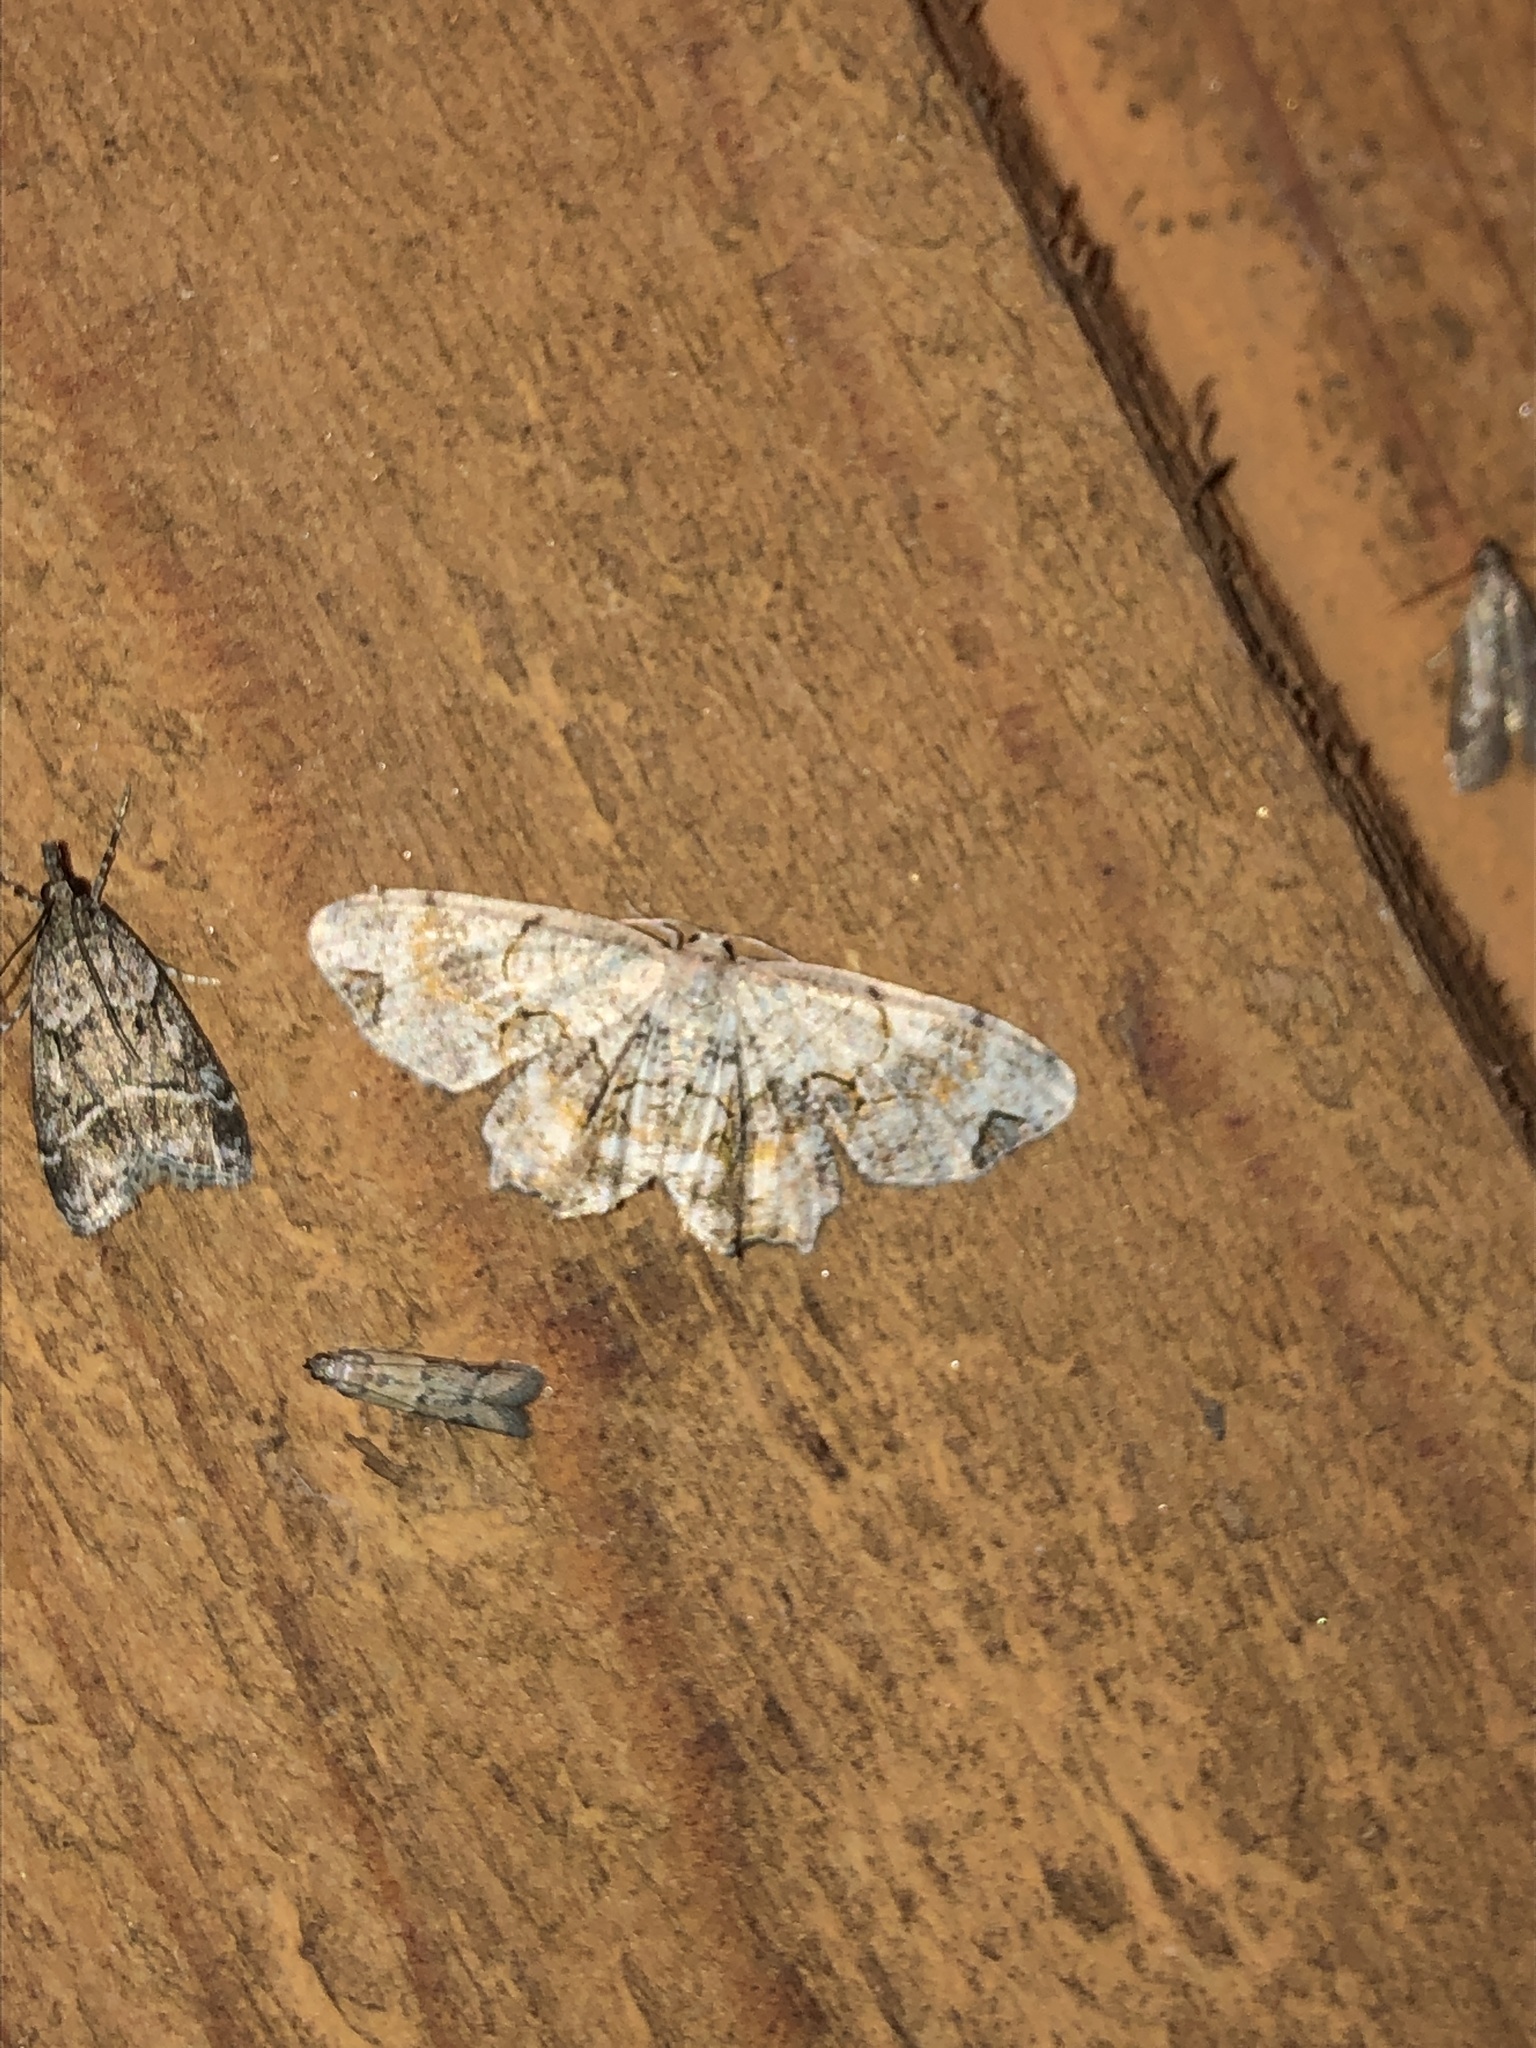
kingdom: Animalia
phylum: Arthropoda
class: Insecta
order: Lepidoptera
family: Uraniidae
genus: Epiplema
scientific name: Epiplema Callizzia amorata
